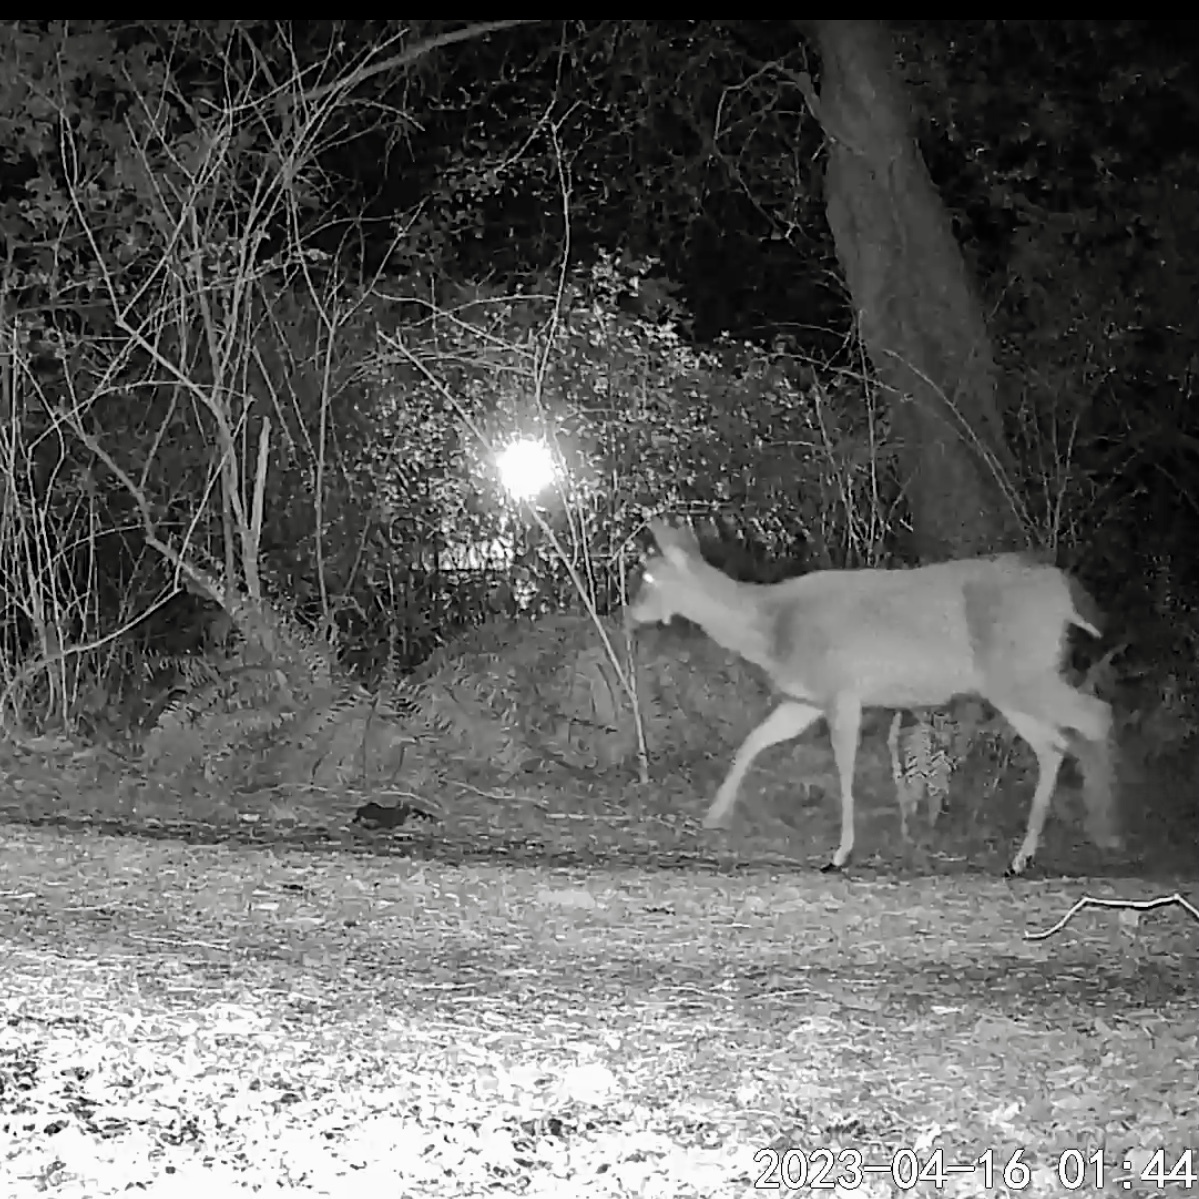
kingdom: Animalia
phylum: Chordata
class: Mammalia
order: Artiodactyla
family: Cervidae
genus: Odocoileus
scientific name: Odocoileus hemionus
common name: Mule deer
